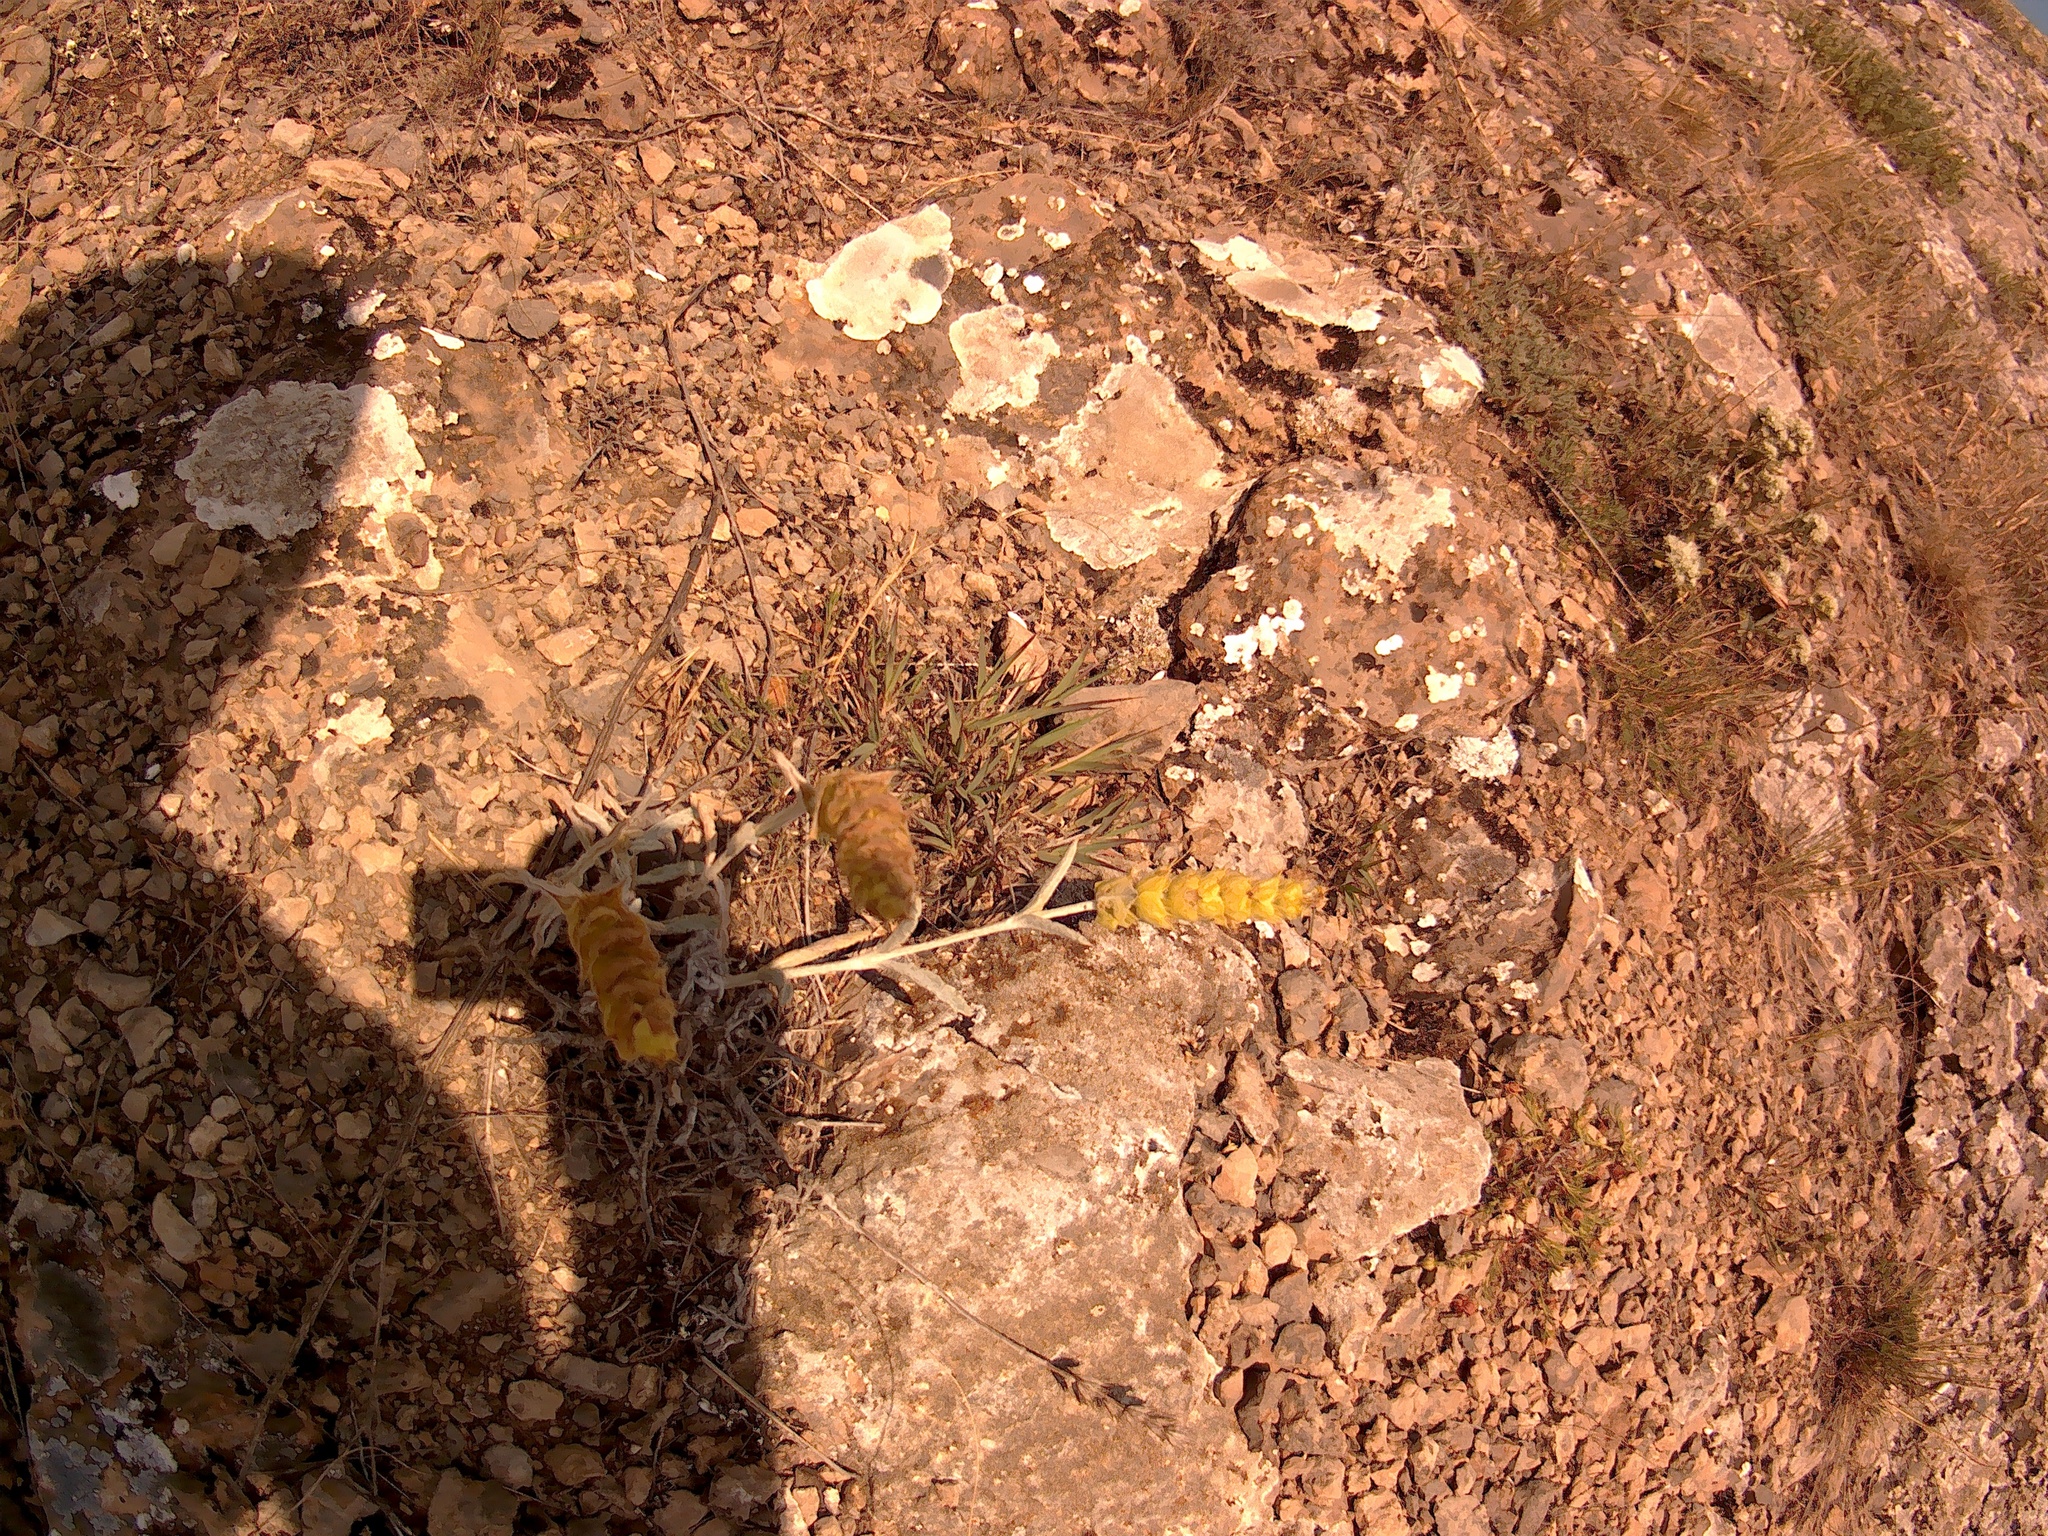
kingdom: Plantae
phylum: Tracheophyta
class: Magnoliopsida
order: Lamiales
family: Lamiaceae
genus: Sideritis
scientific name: Sideritis taurica
